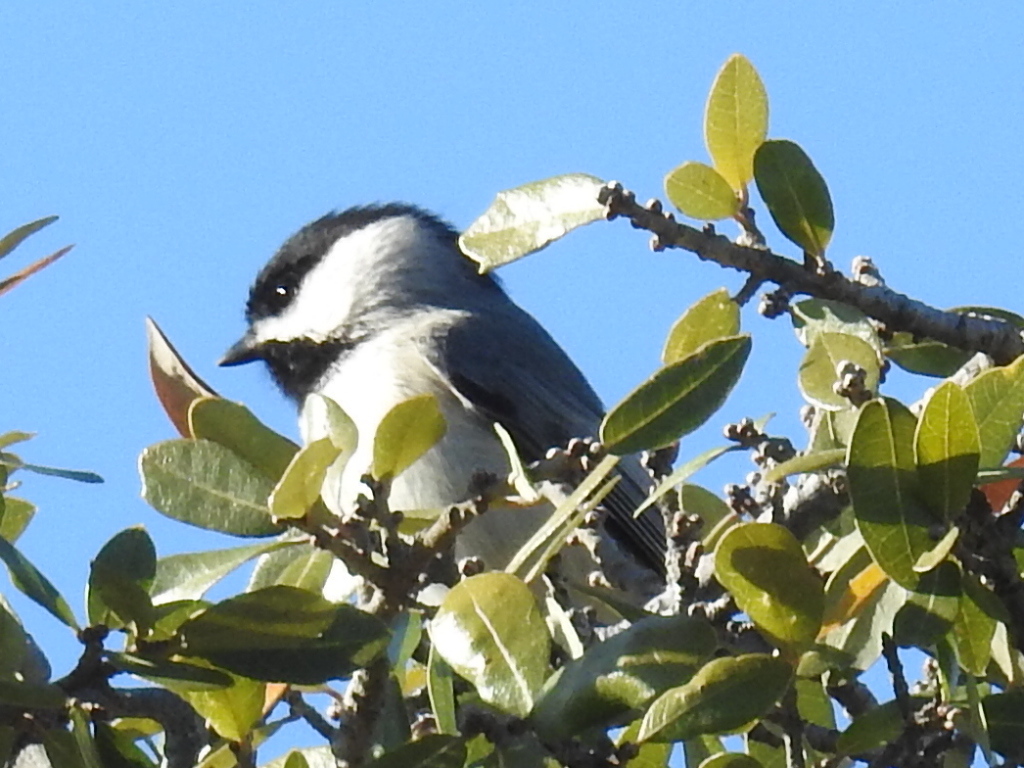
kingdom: Animalia
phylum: Chordata
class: Aves
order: Passeriformes
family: Paridae
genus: Poecile
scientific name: Poecile carolinensis
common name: Carolina chickadee
